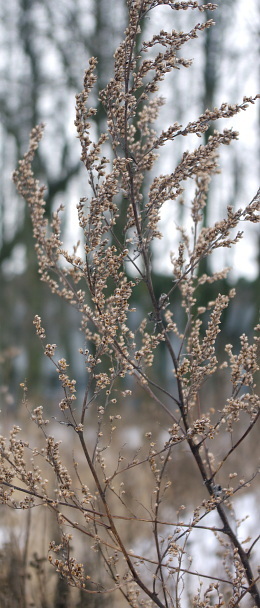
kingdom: Plantae
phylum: Tracheophyta
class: Magnoliopsida
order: Asterales
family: Asteraceae
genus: Artemisia
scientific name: Artemisia vulgaris
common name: Mugwort
